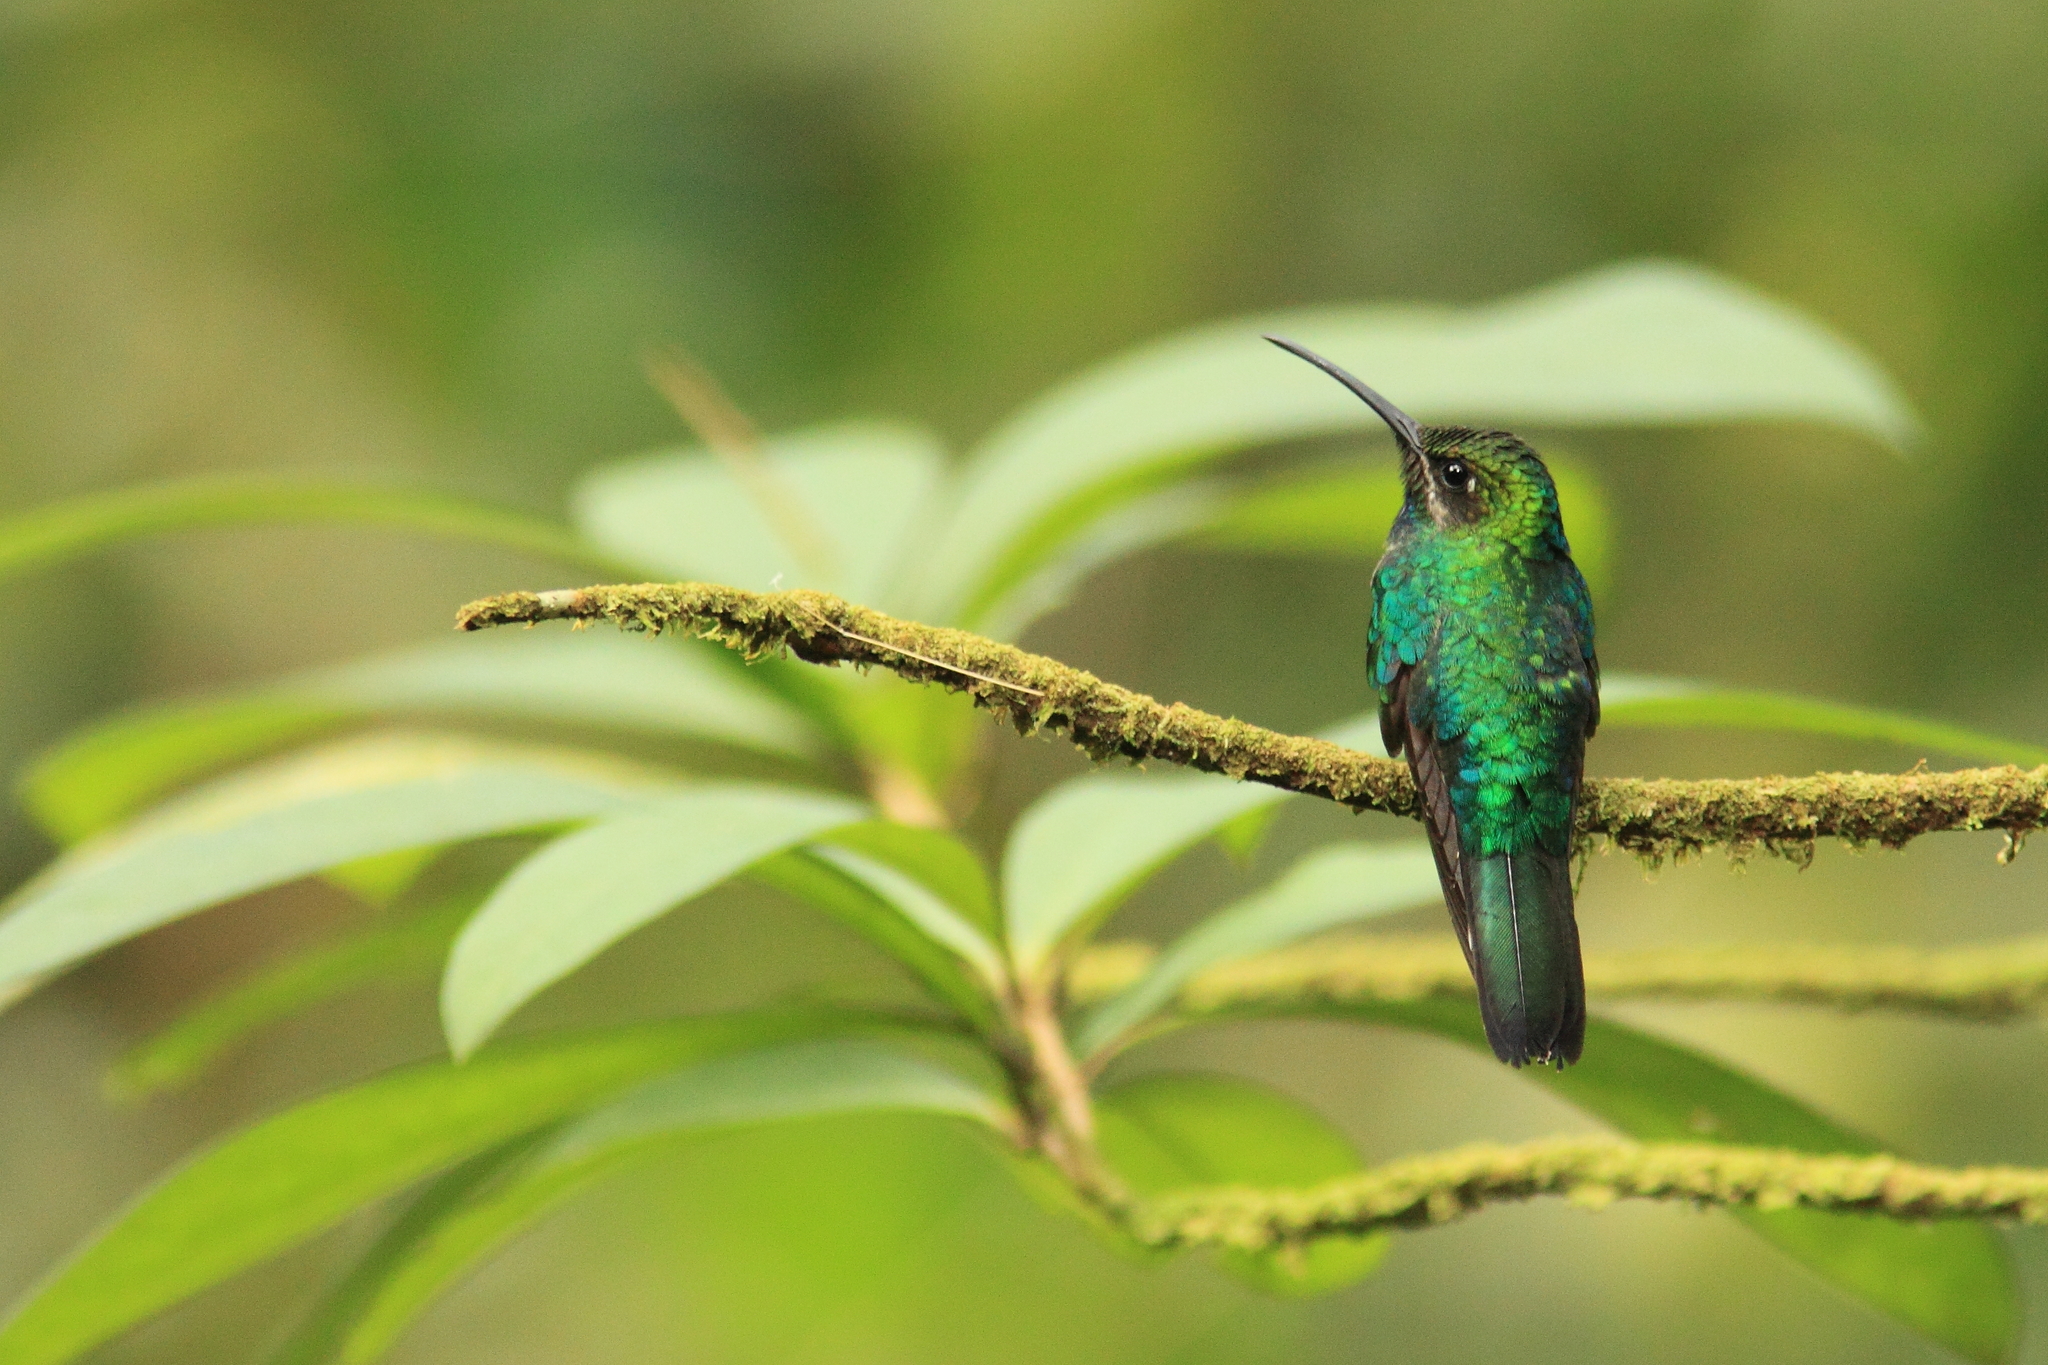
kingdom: Animalia
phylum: Chordata
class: Aves
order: Apodiformes
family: Trochilidae
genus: Campylopterus
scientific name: Campylopterus ensipennis
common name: White-tailed sabrewing
